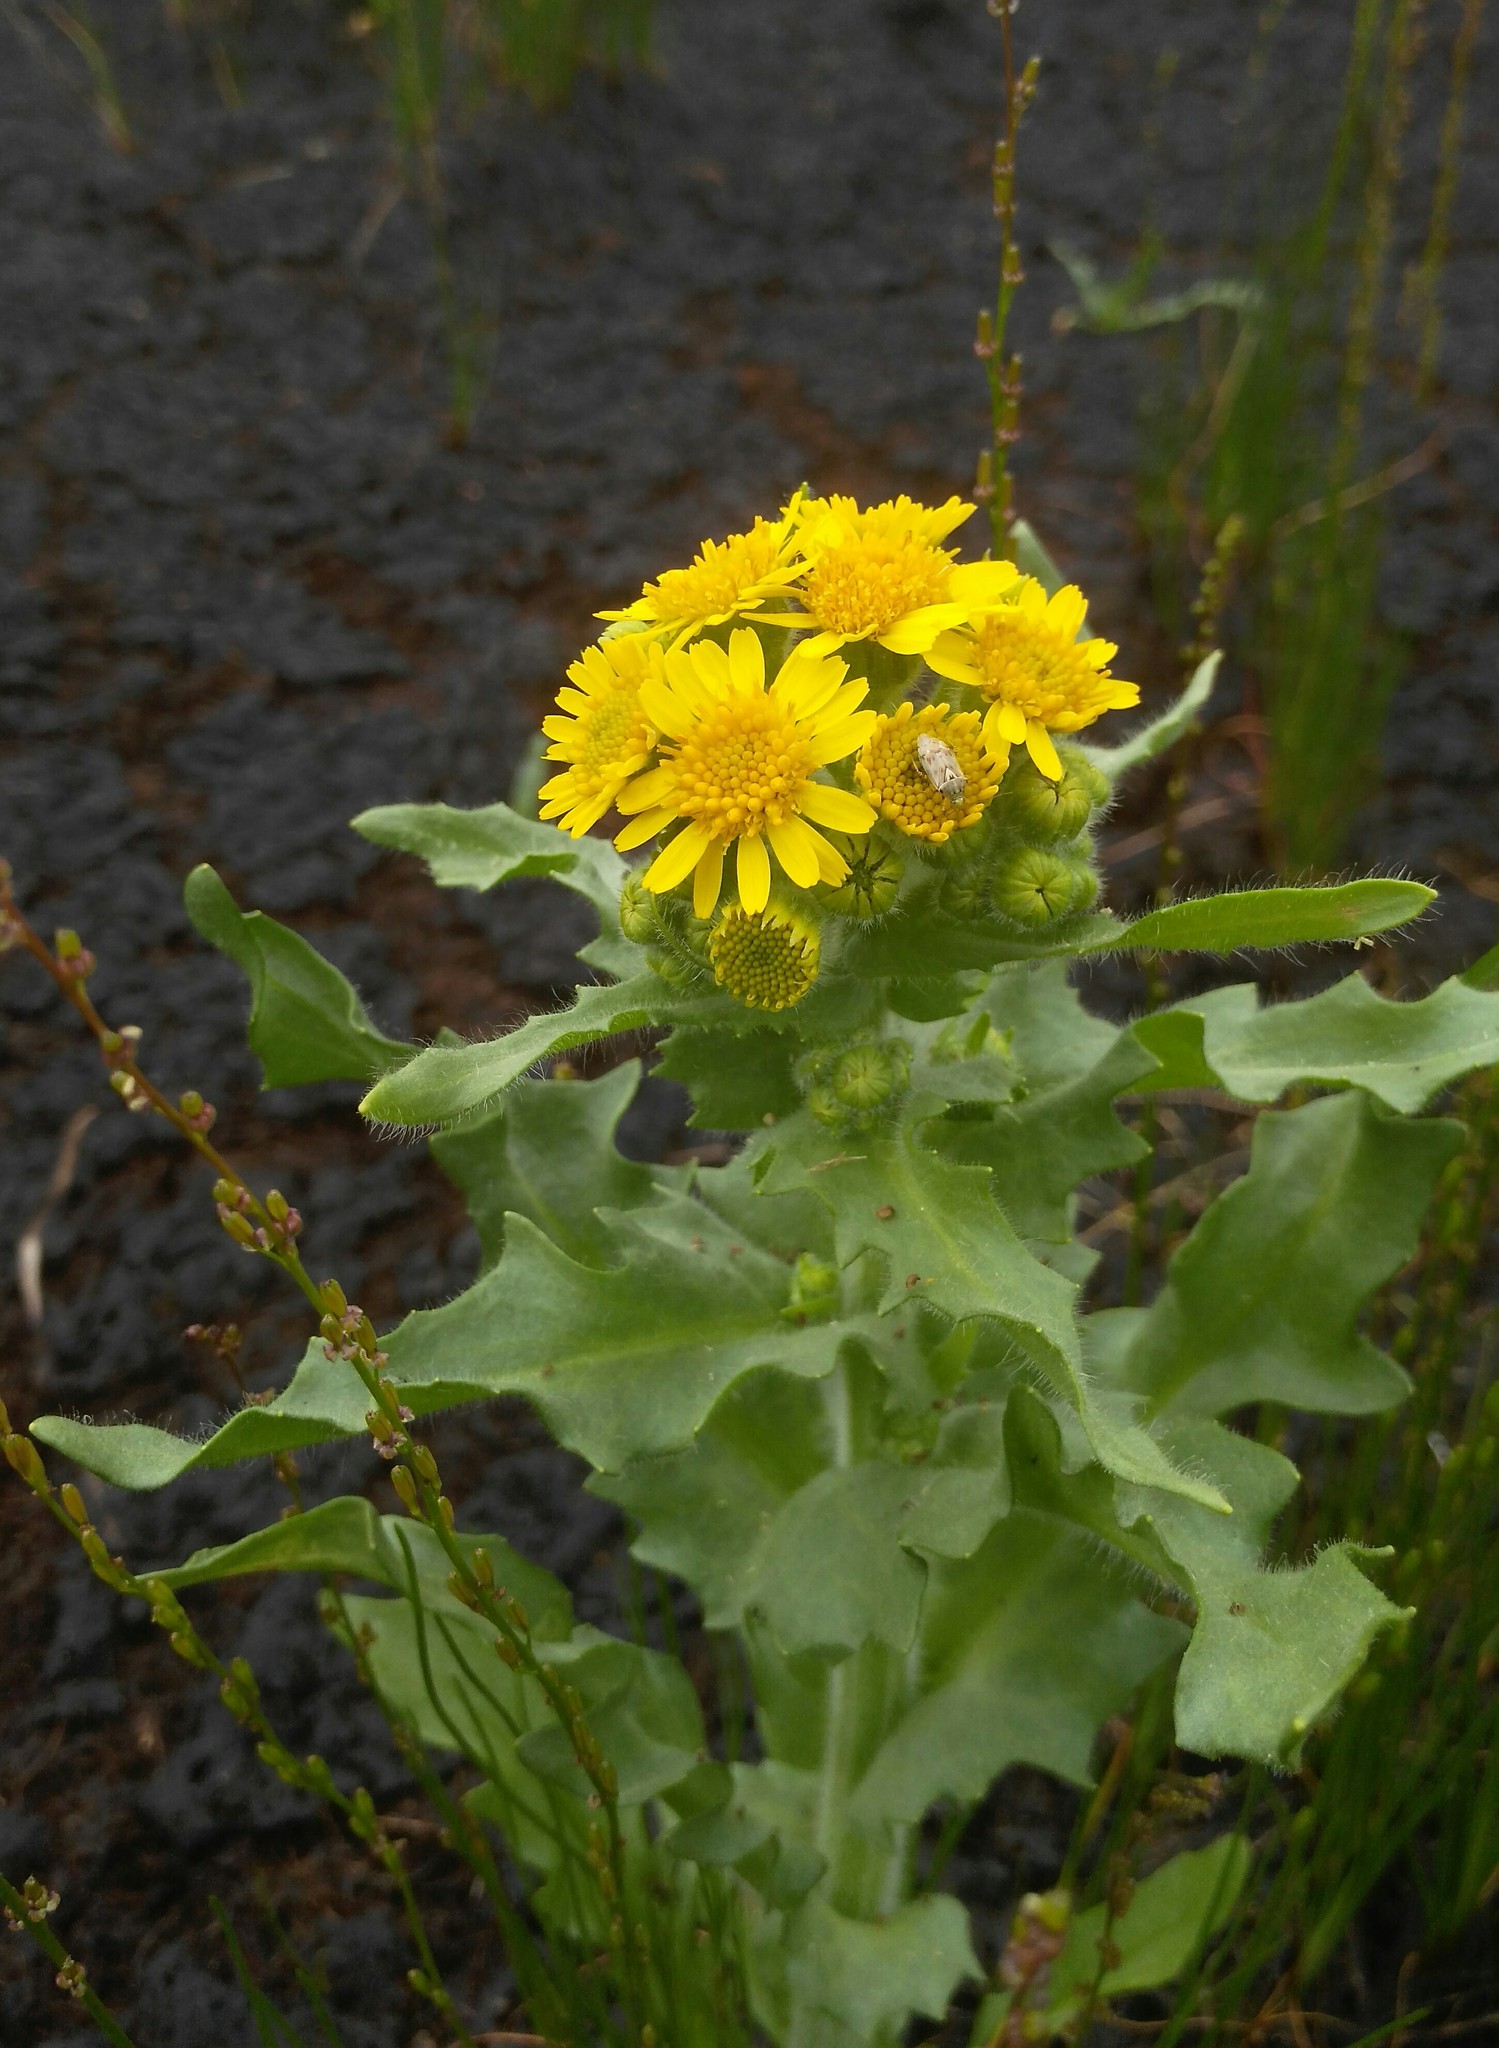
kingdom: Plantae
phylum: Tracheophyta
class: Magnoliopsida
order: Asterales
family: Asteraceae
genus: Tephroseris
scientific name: Tephroseris palustris
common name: Marsh fleawort
